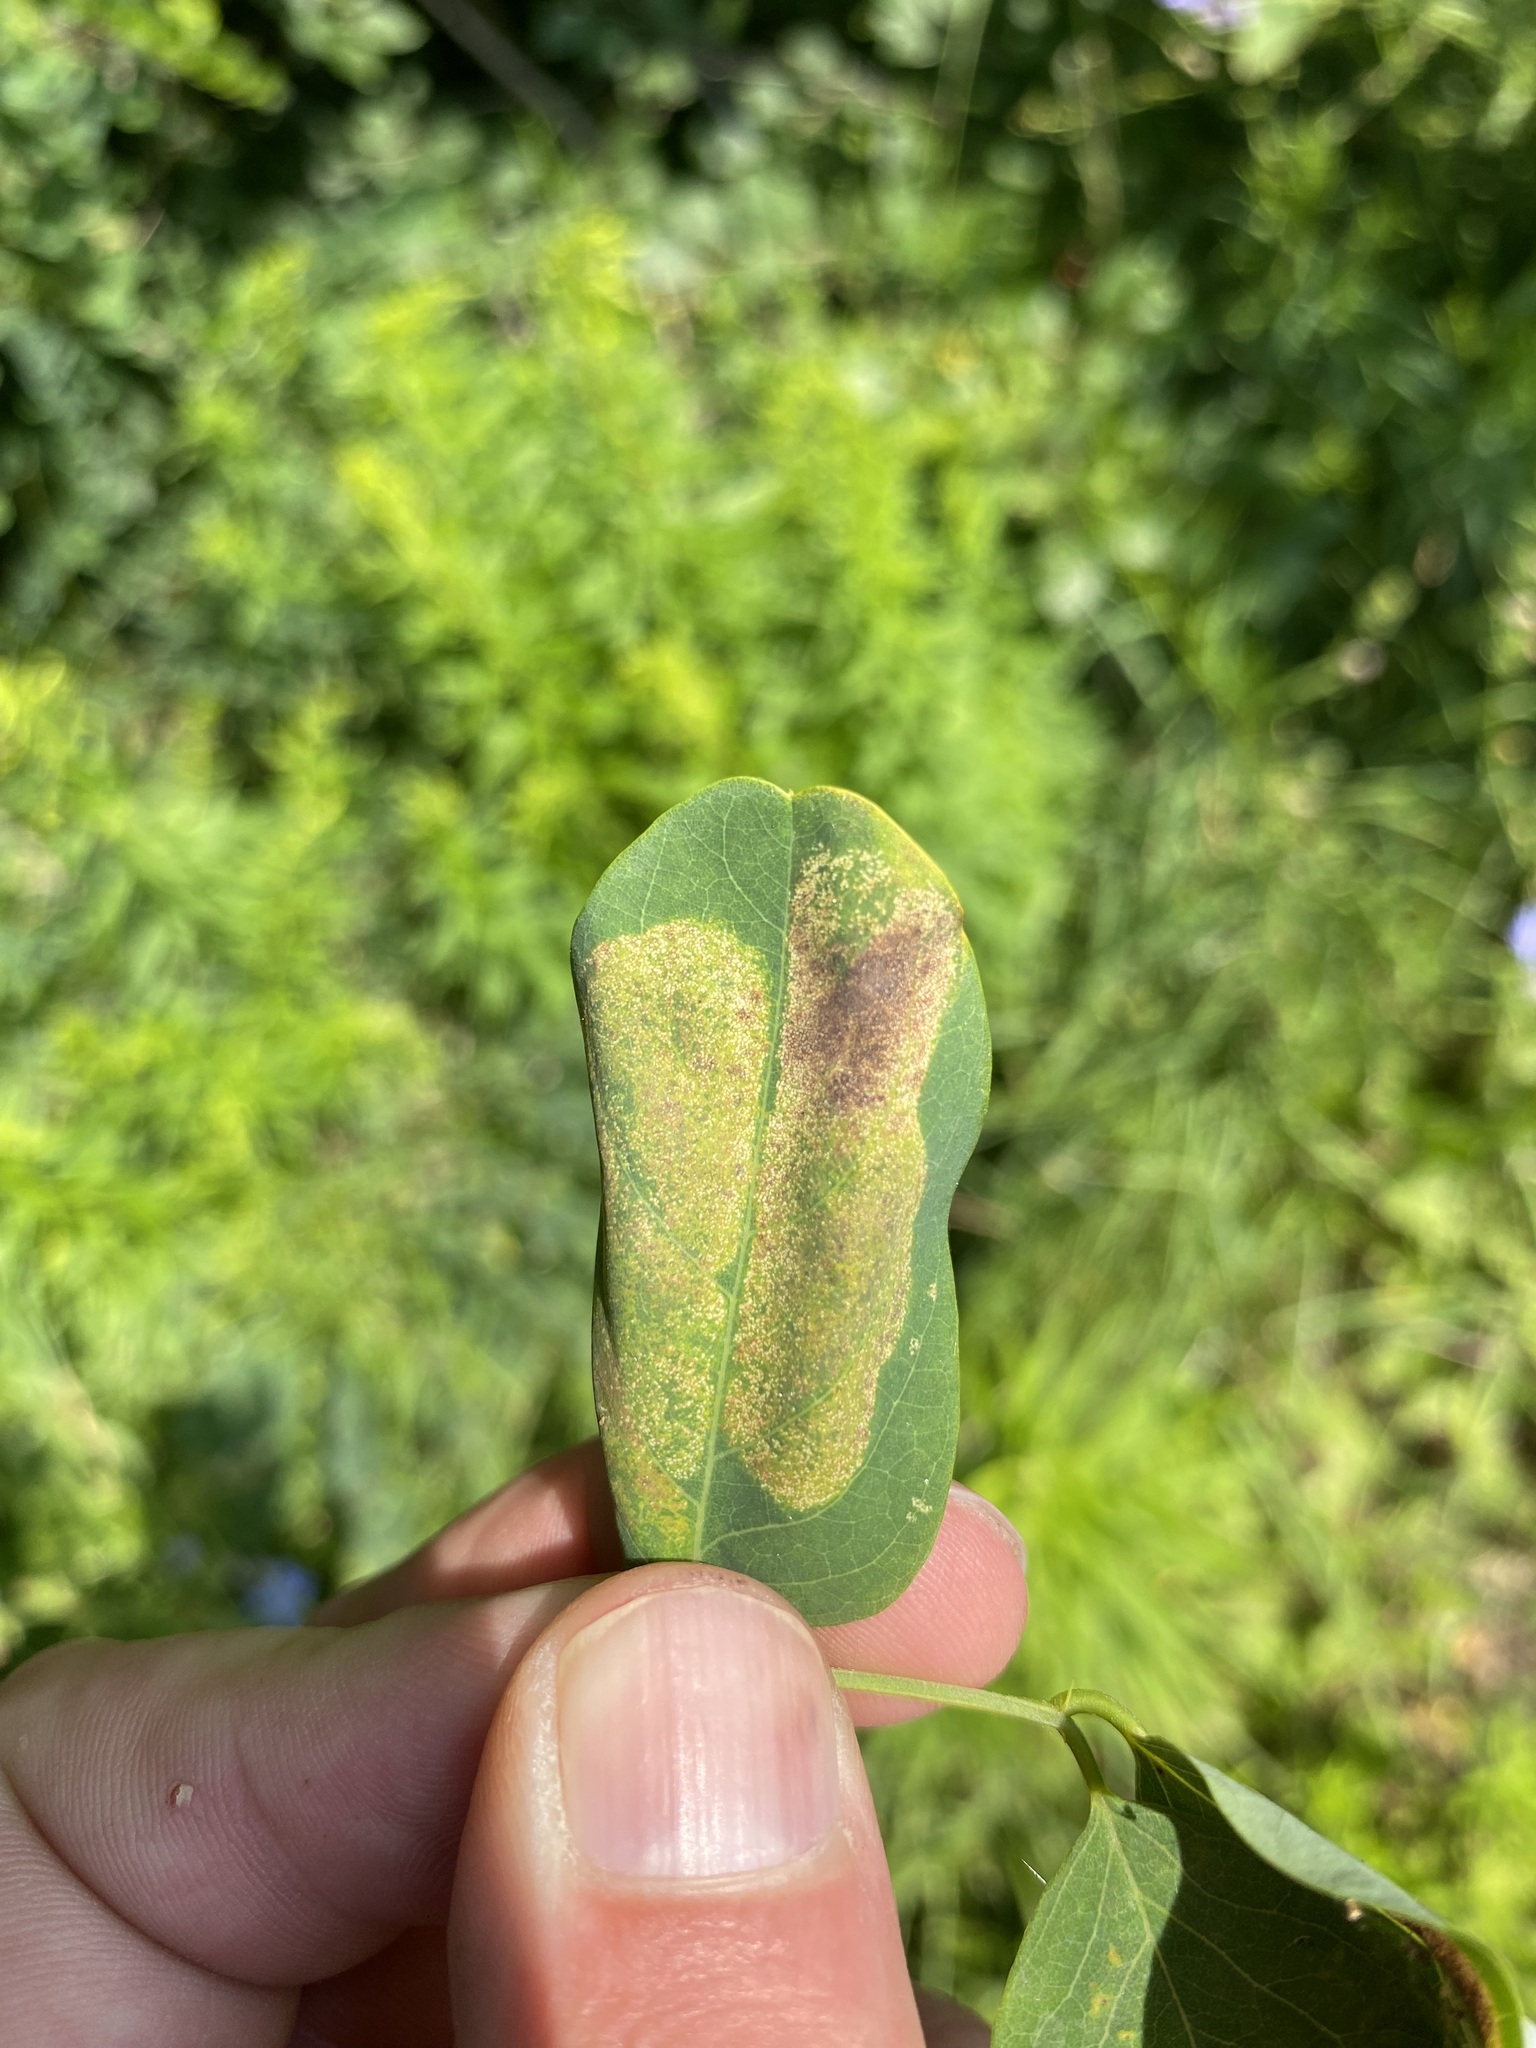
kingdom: Animalia
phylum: Arthropoda
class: Insecta
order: Lepidoptera
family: Gracillariidae
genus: Macrosaccus
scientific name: Macrosaccus robiniella
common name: Leaf blotch miner moth
